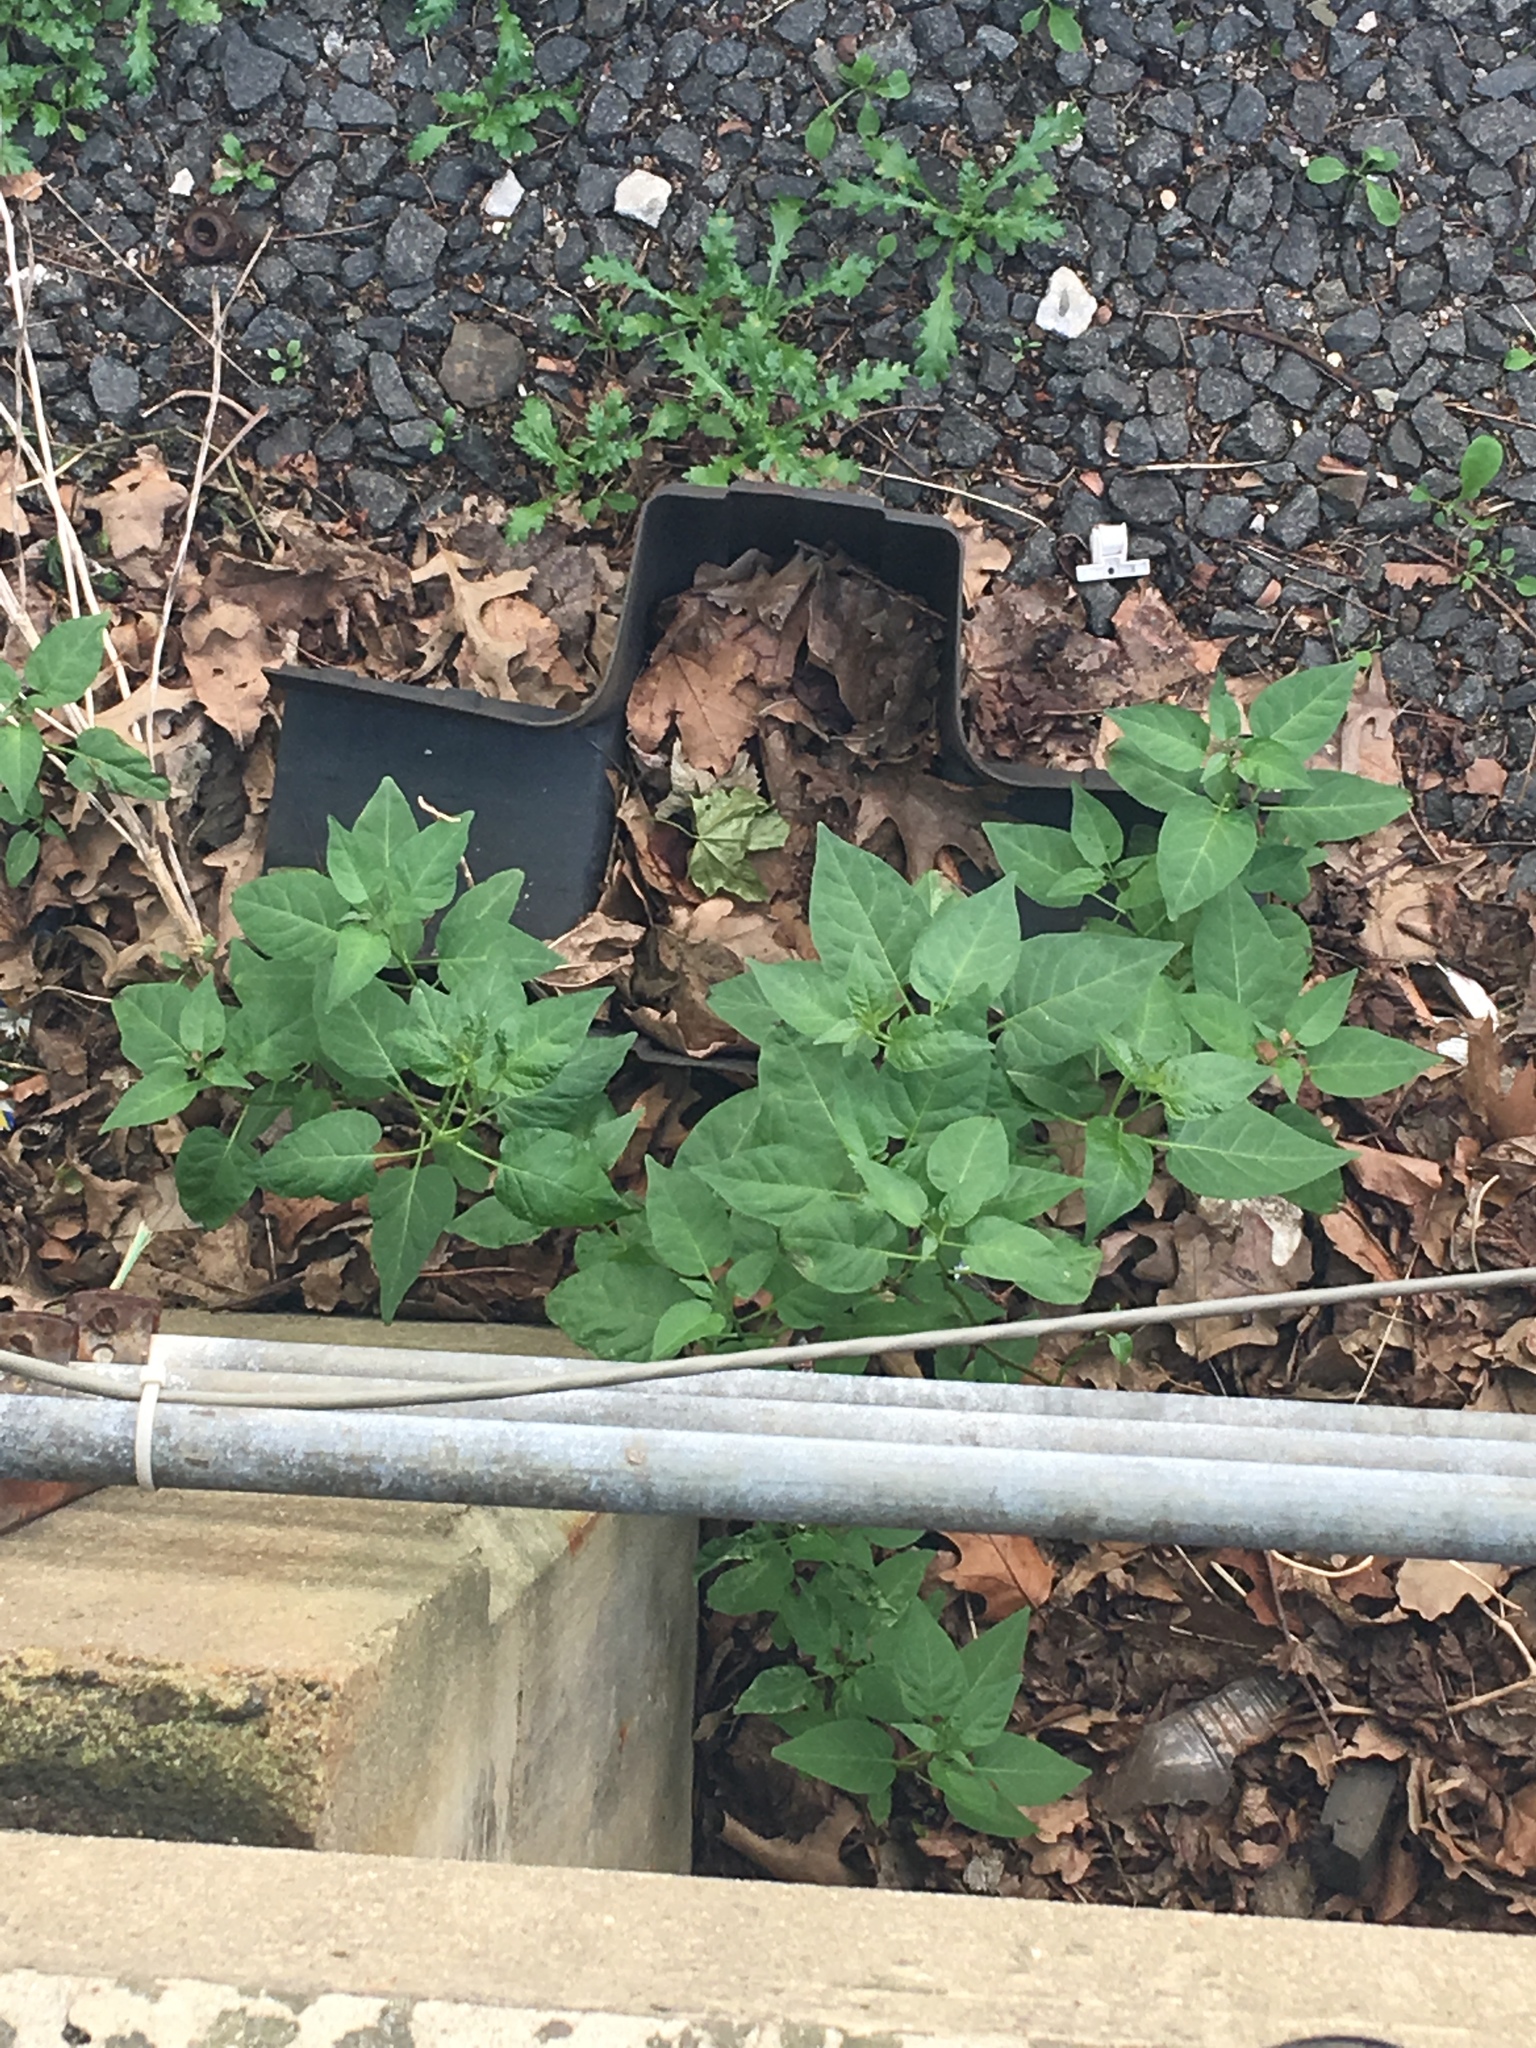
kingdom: Plantae
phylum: Tracheophyta
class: Magnoliopsida
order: Solanales
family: Solanaceae
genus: Solanum
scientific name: Solanum dulcamara
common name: Climbing nightshade
